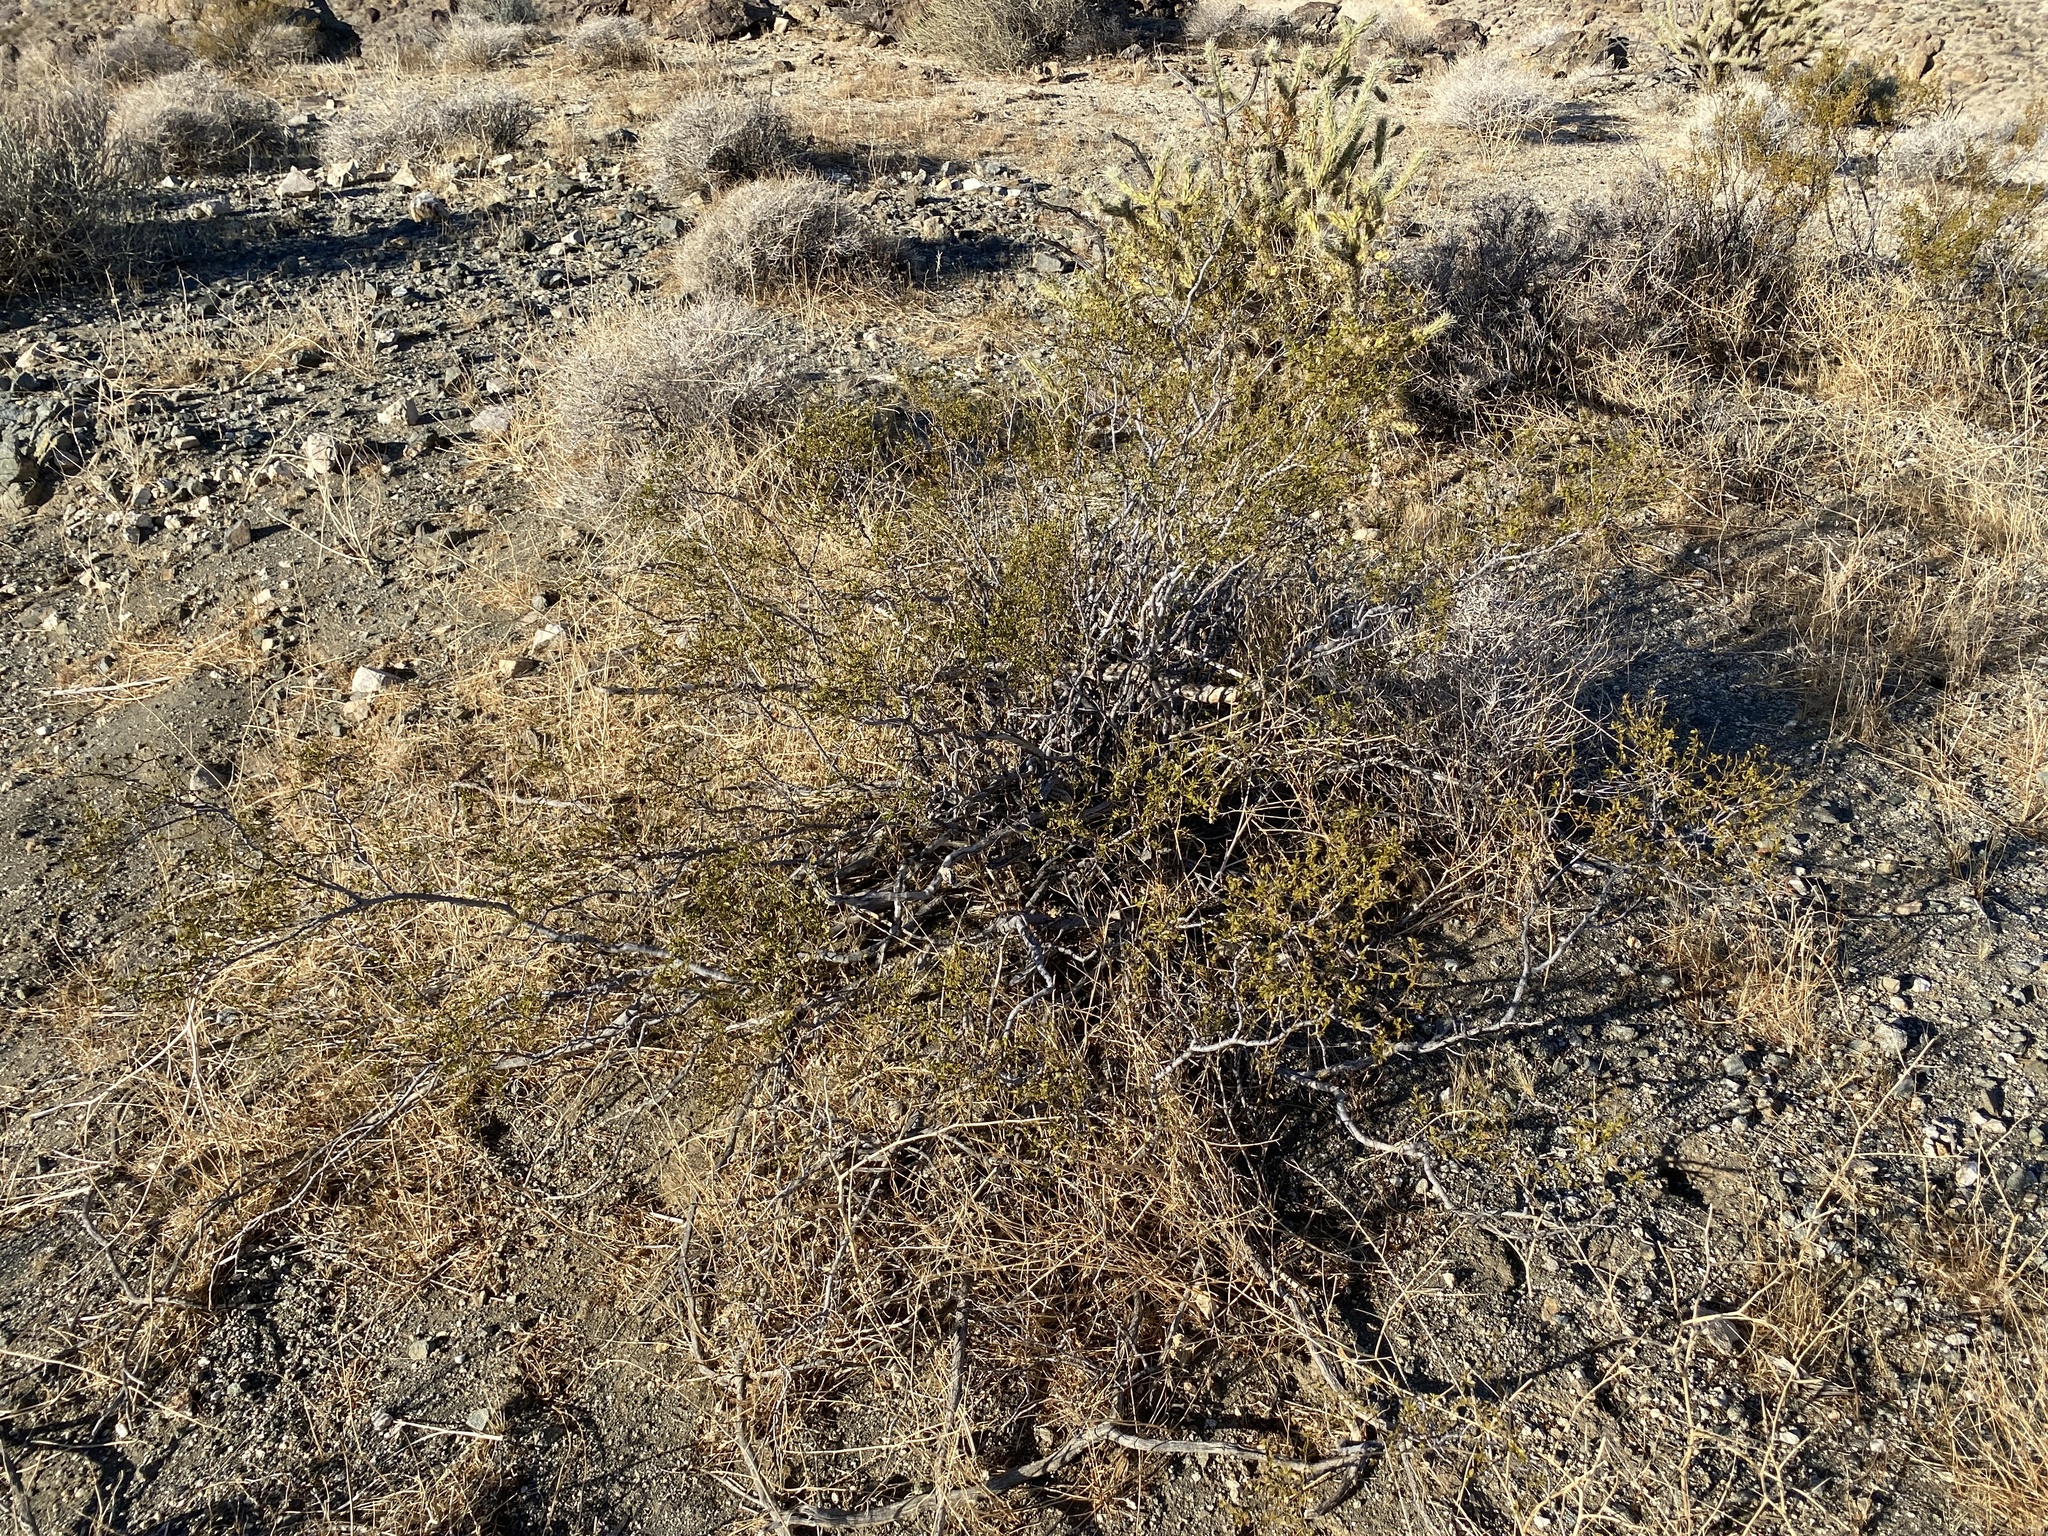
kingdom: Plantae
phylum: Tracheophyta
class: Magnoliopsida
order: Zygophyllales
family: Zygophyllaceae
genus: Larrea
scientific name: Larrea tridentata
